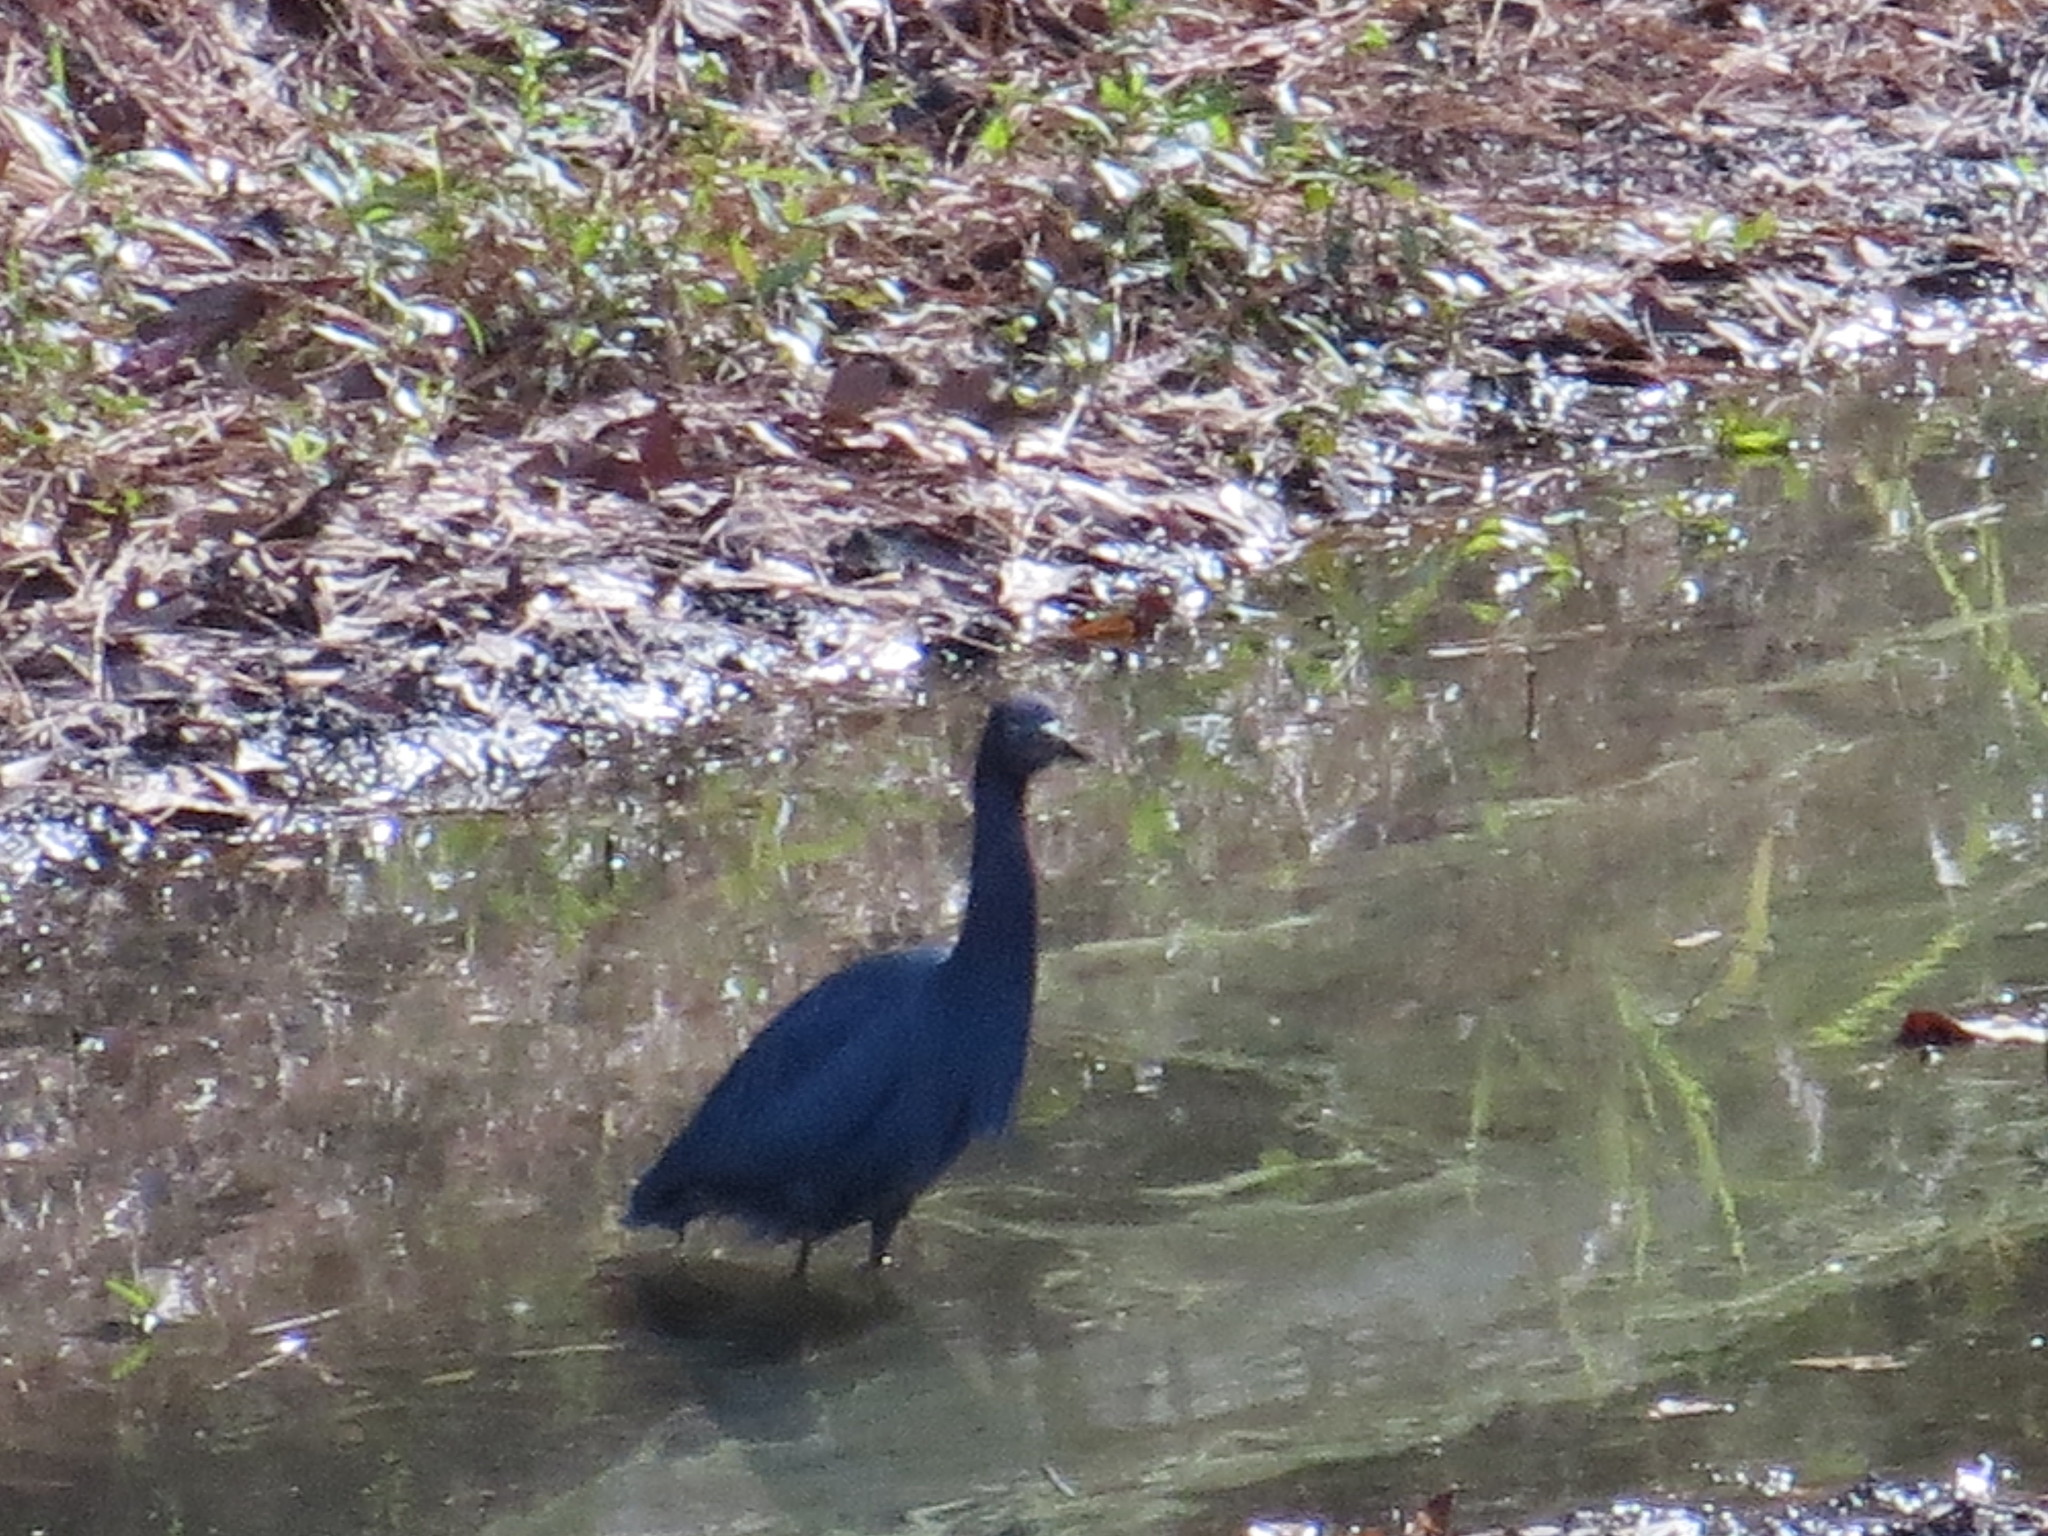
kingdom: Animalia
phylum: Chordata
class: Aves
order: Pelecaniformes
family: Ardeidae
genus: Egretta
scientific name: Egretta caerulea
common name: Little blue heron
